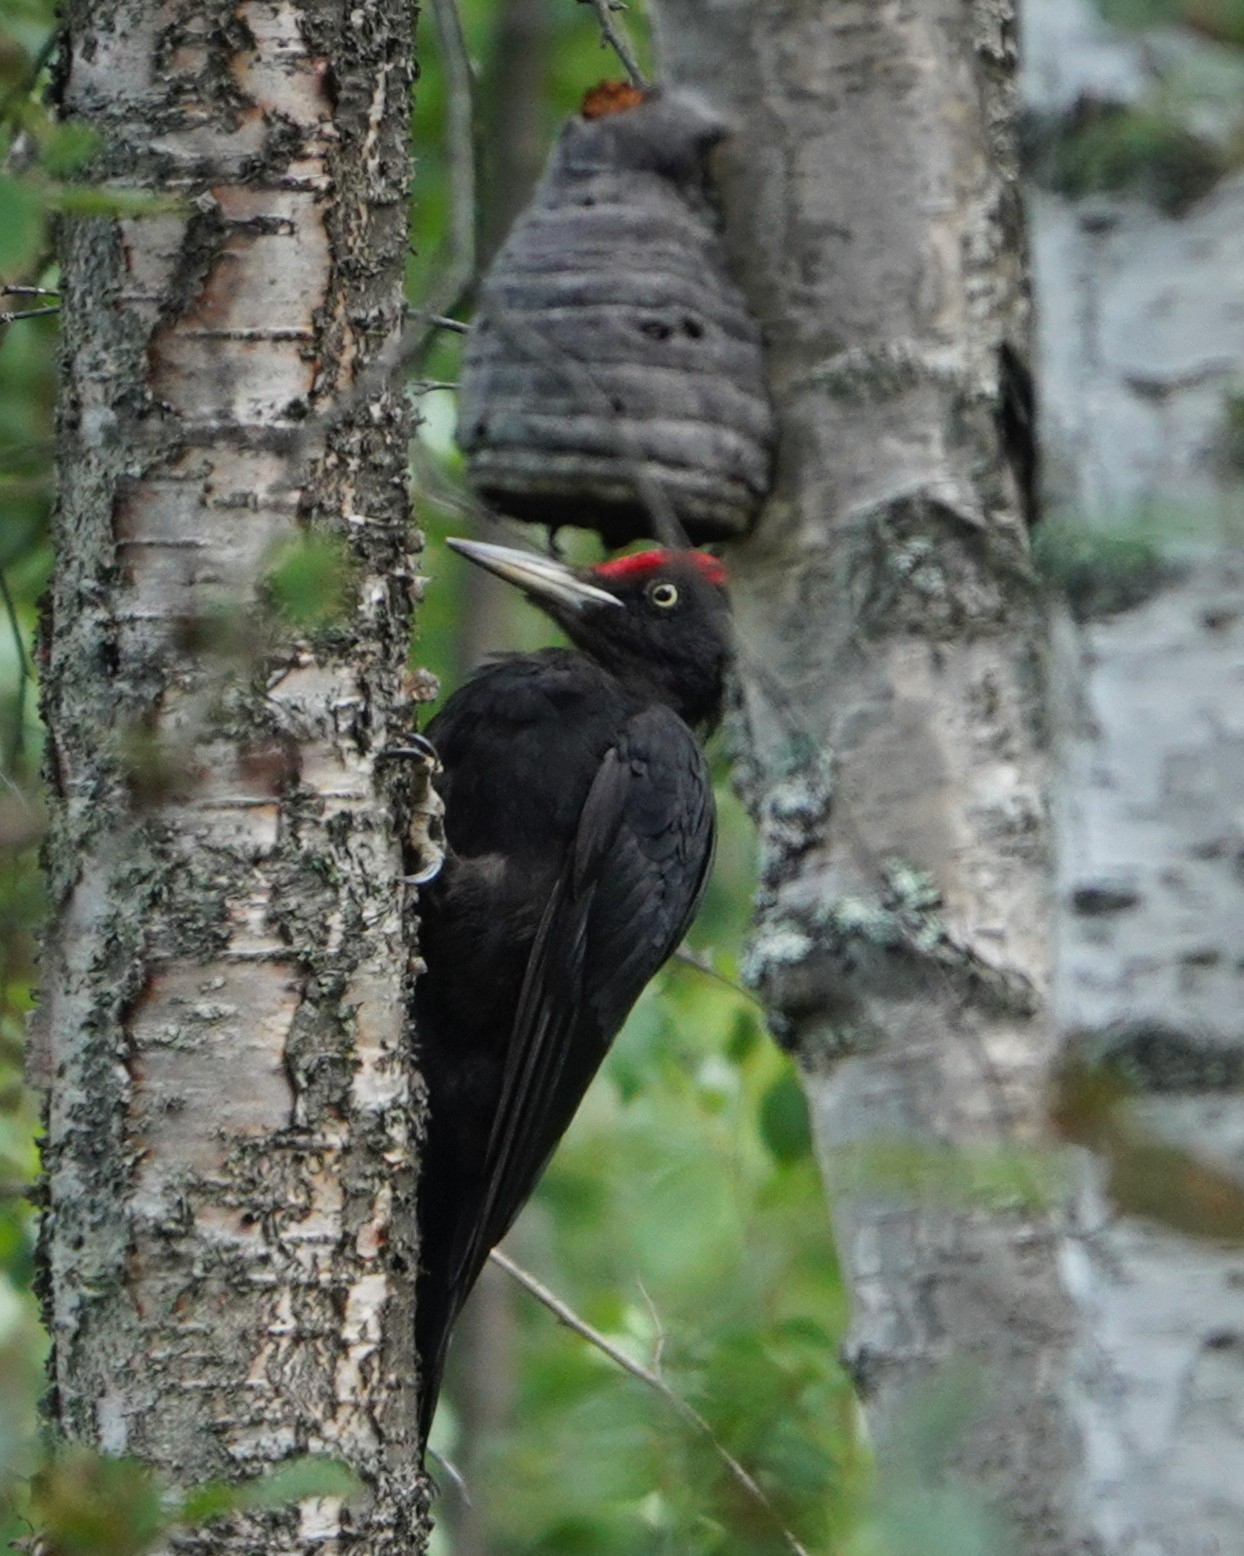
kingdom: Animalia
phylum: Chordata
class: Aves
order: Piciformes
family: Picidae
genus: Dryocopus
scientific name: Dryocopus martius
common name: Black woodpecker
